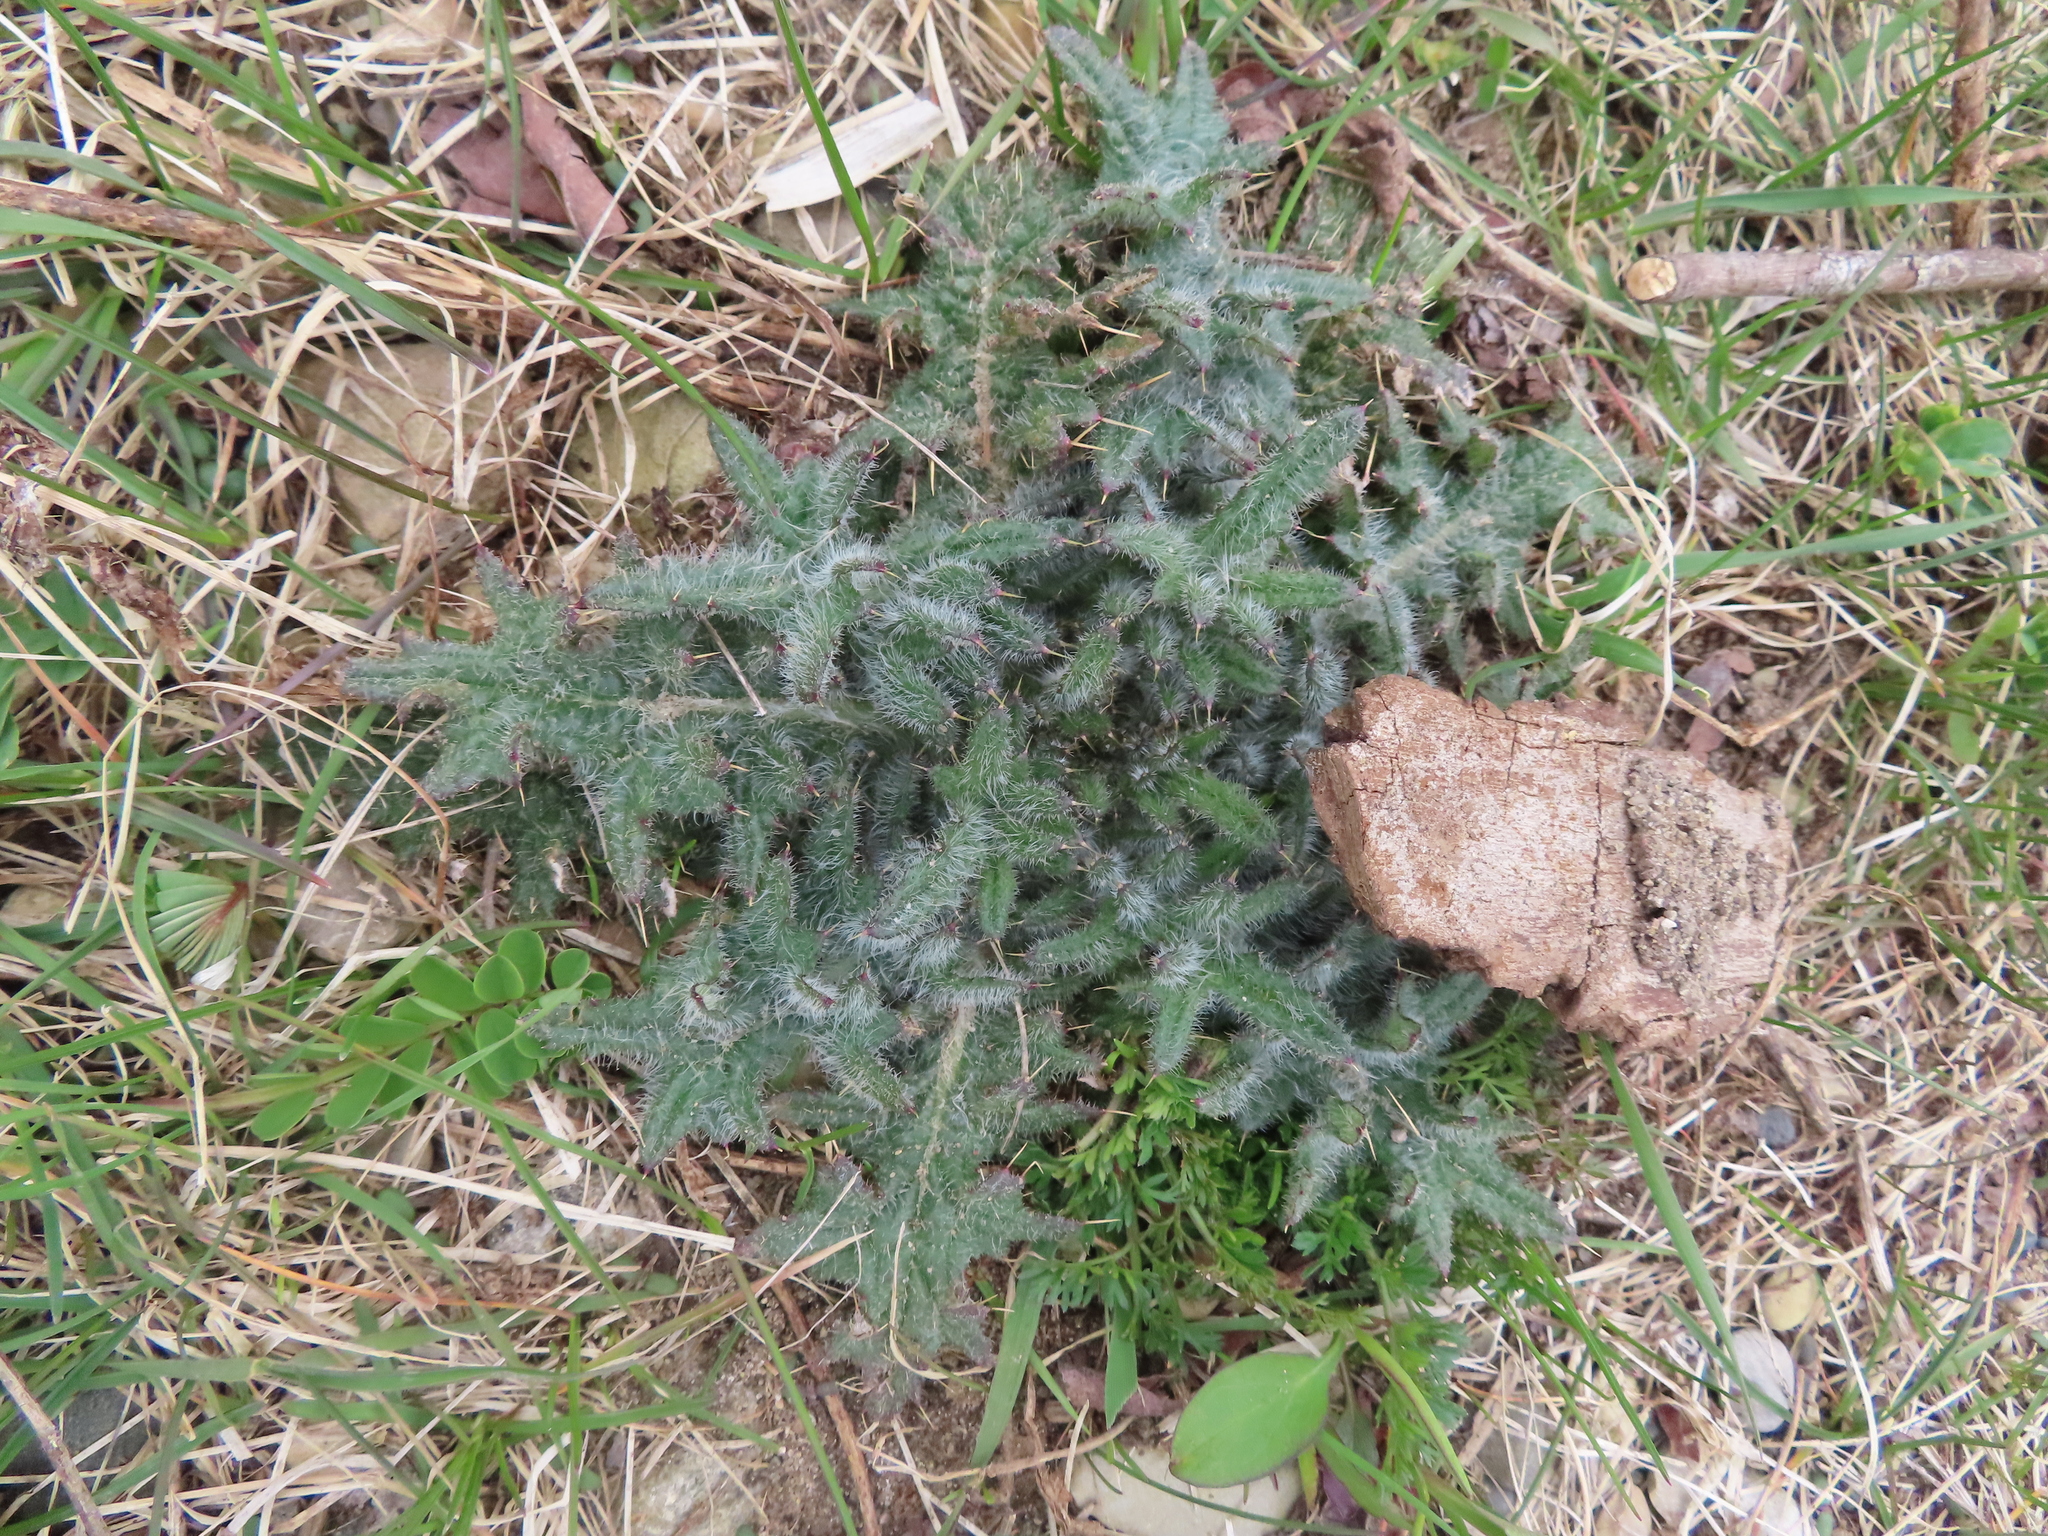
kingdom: Plantae
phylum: Tracheophyta
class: Magnoliopsida
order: Asterales
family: Asteraceae
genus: Cirsium
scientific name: Cirsium vulgare
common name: Bull thistle
